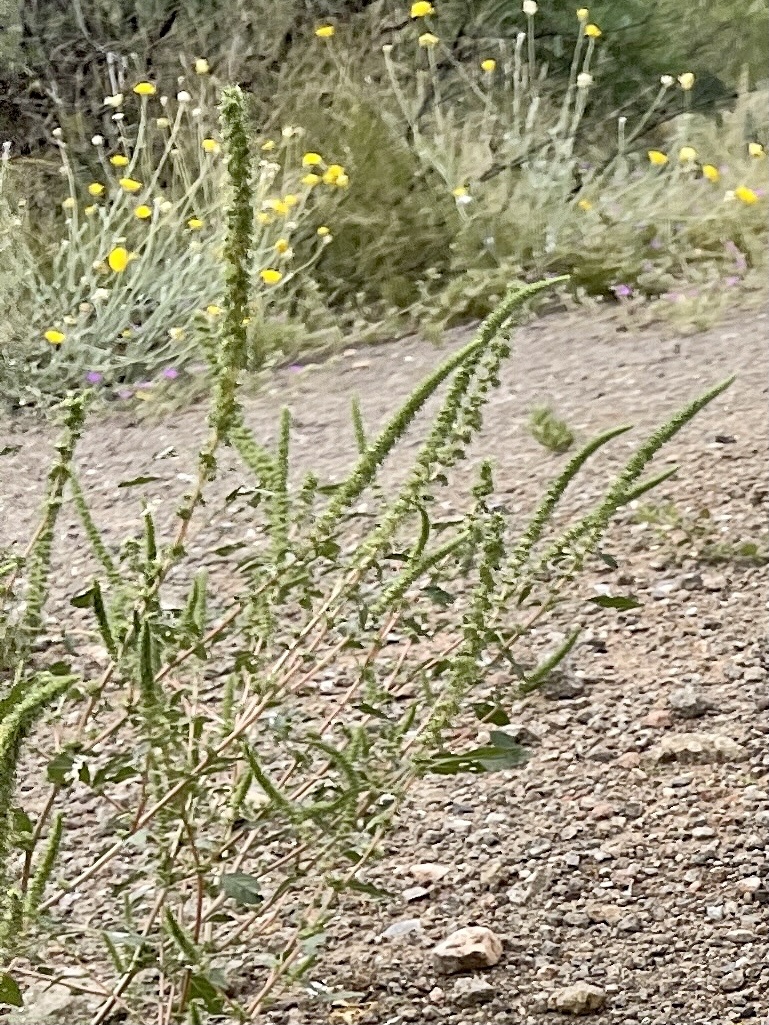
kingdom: Plantae
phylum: Tracheophyta
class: Magnoliopsida
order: Caryophyllales
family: Amaranthaceae
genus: Amaranthus
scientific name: Amaranthus palmeri
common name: Dioecious amaranth
